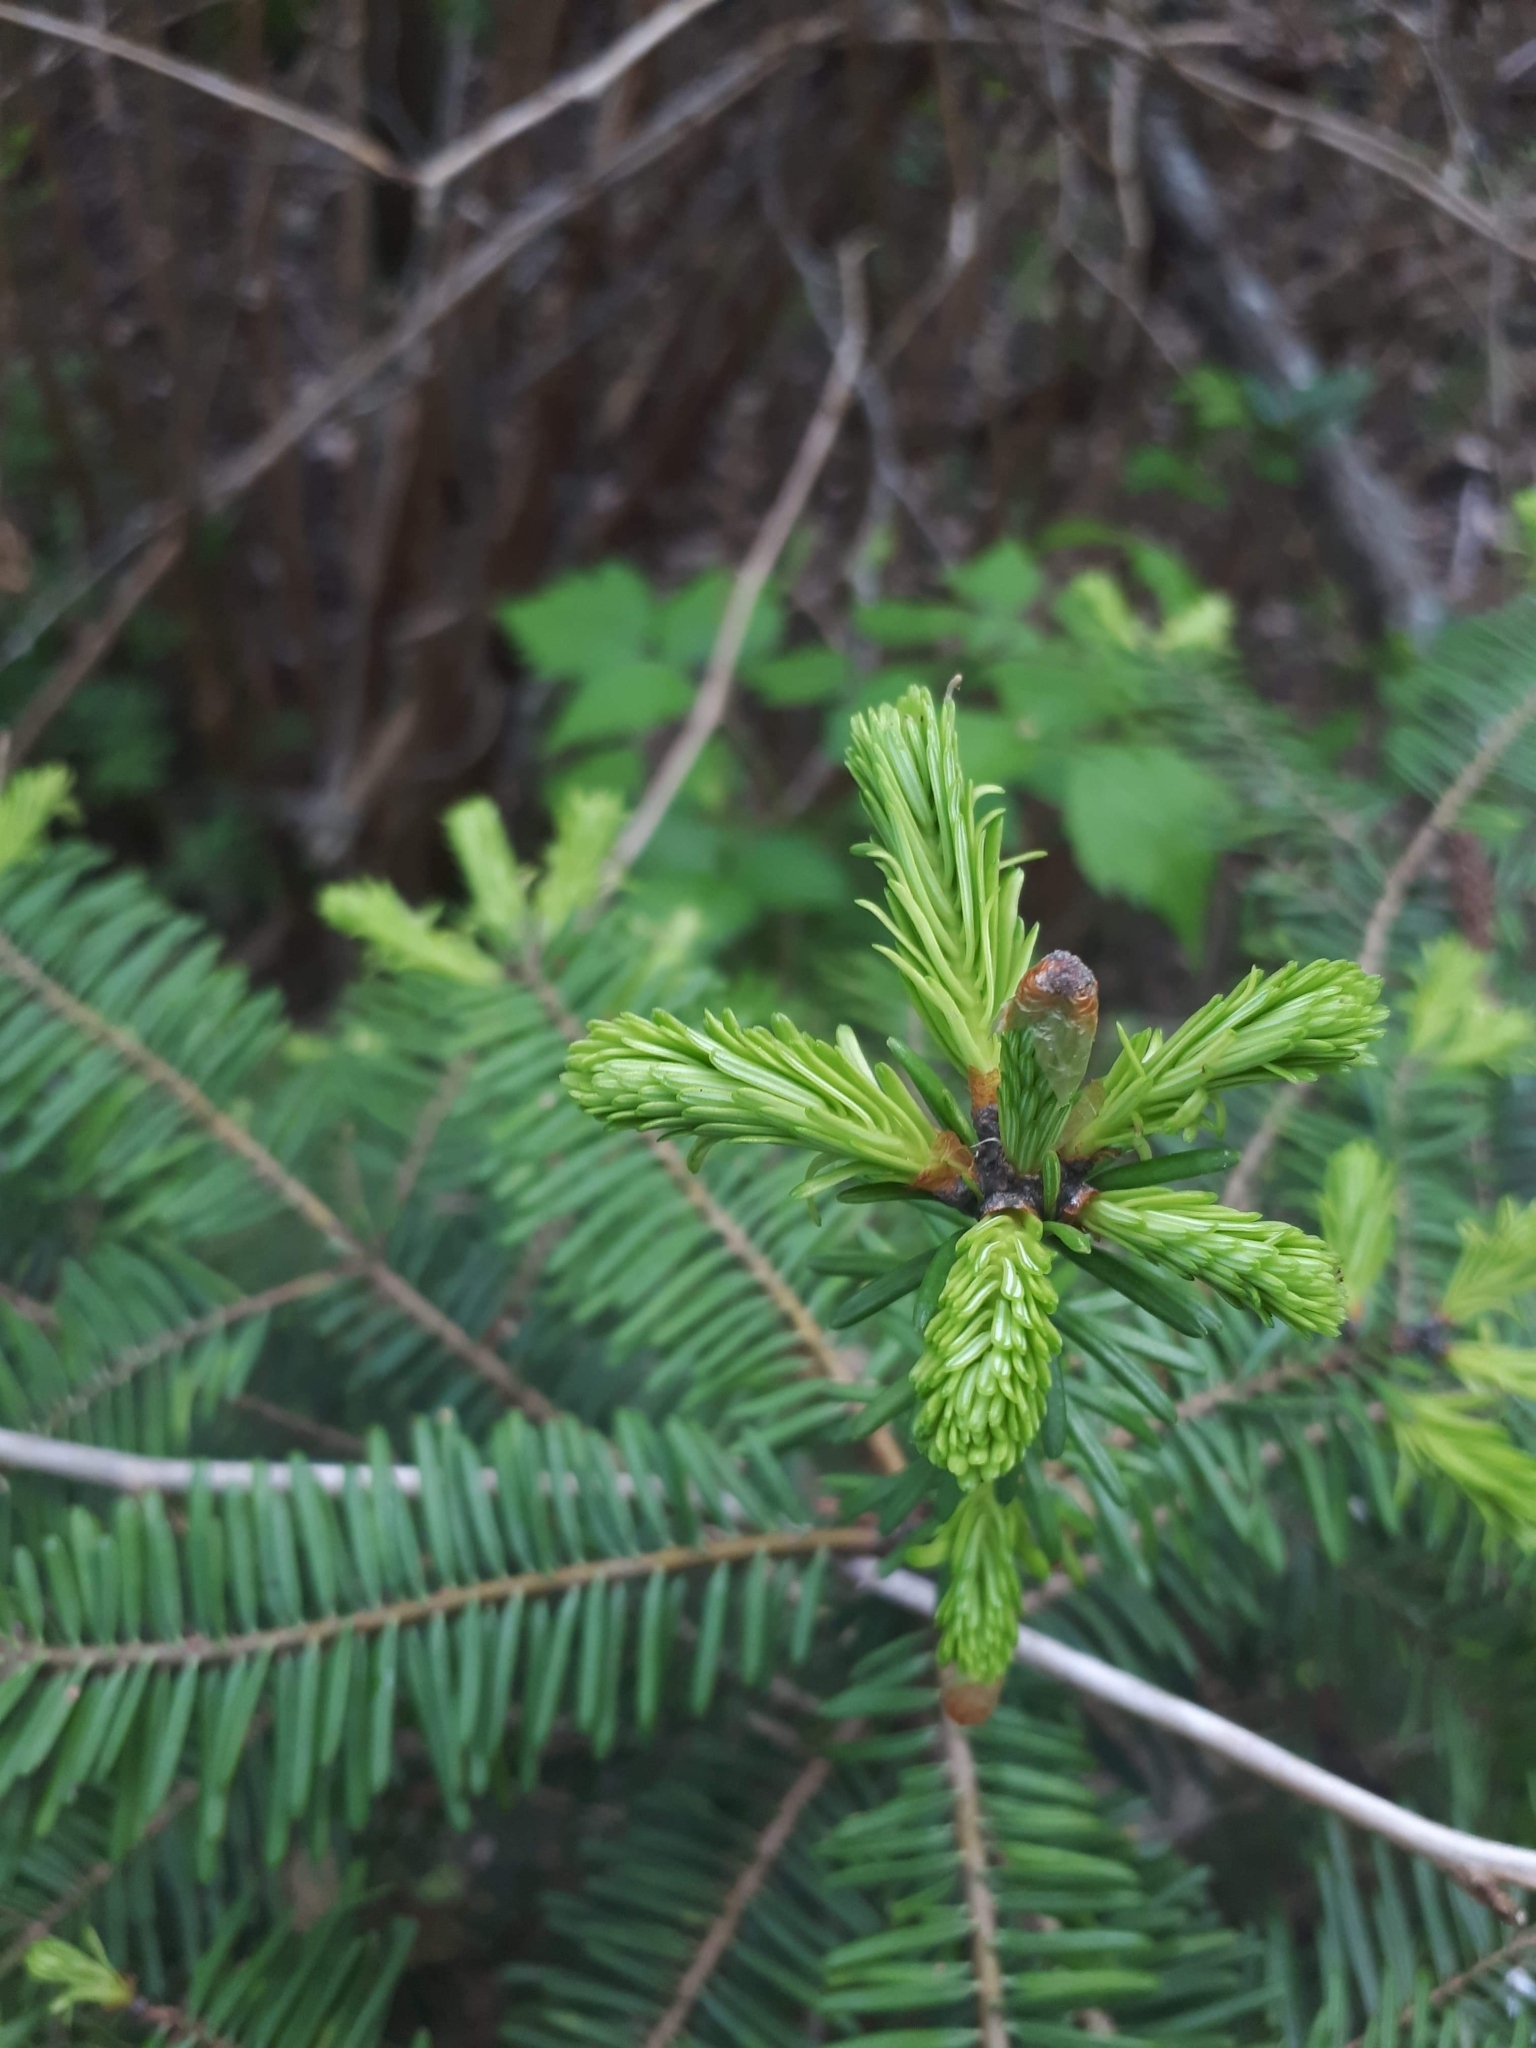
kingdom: Plantae
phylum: Tracheophyta
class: Pinopsida
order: Pinales
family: Pinaceae
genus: Abies
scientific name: Abies grandis
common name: Giant fir
